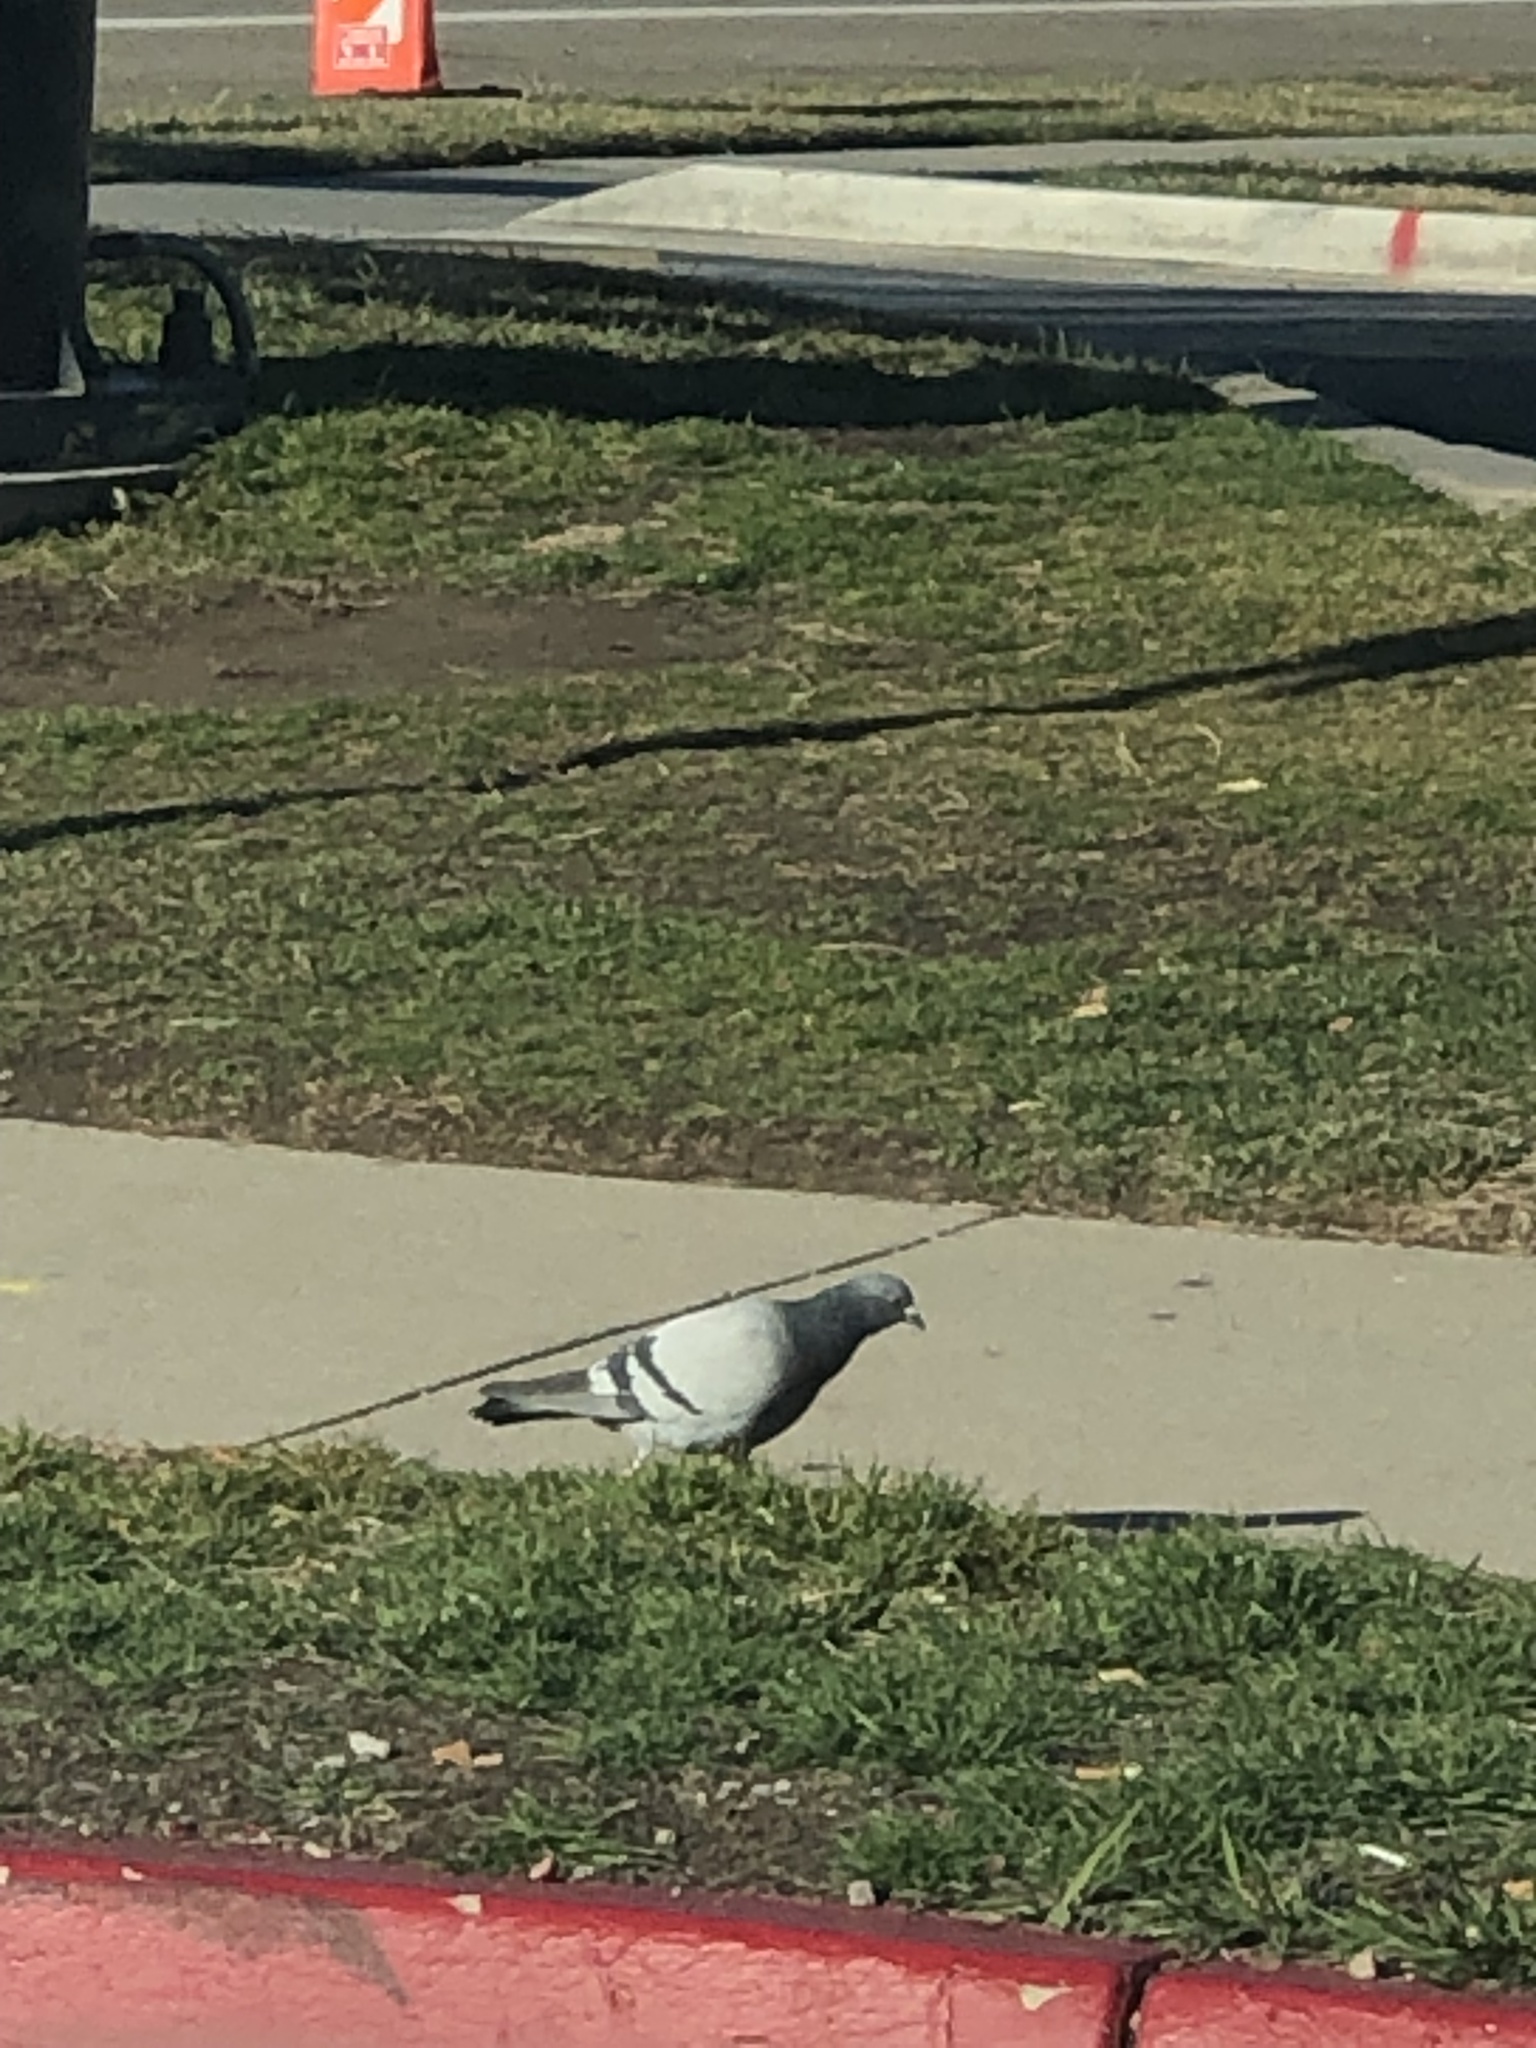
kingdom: Animalia
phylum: Chordata
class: Aves
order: Columbiformes
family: Columbidae
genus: Columba
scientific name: Columba livia
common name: Rock pigeon
